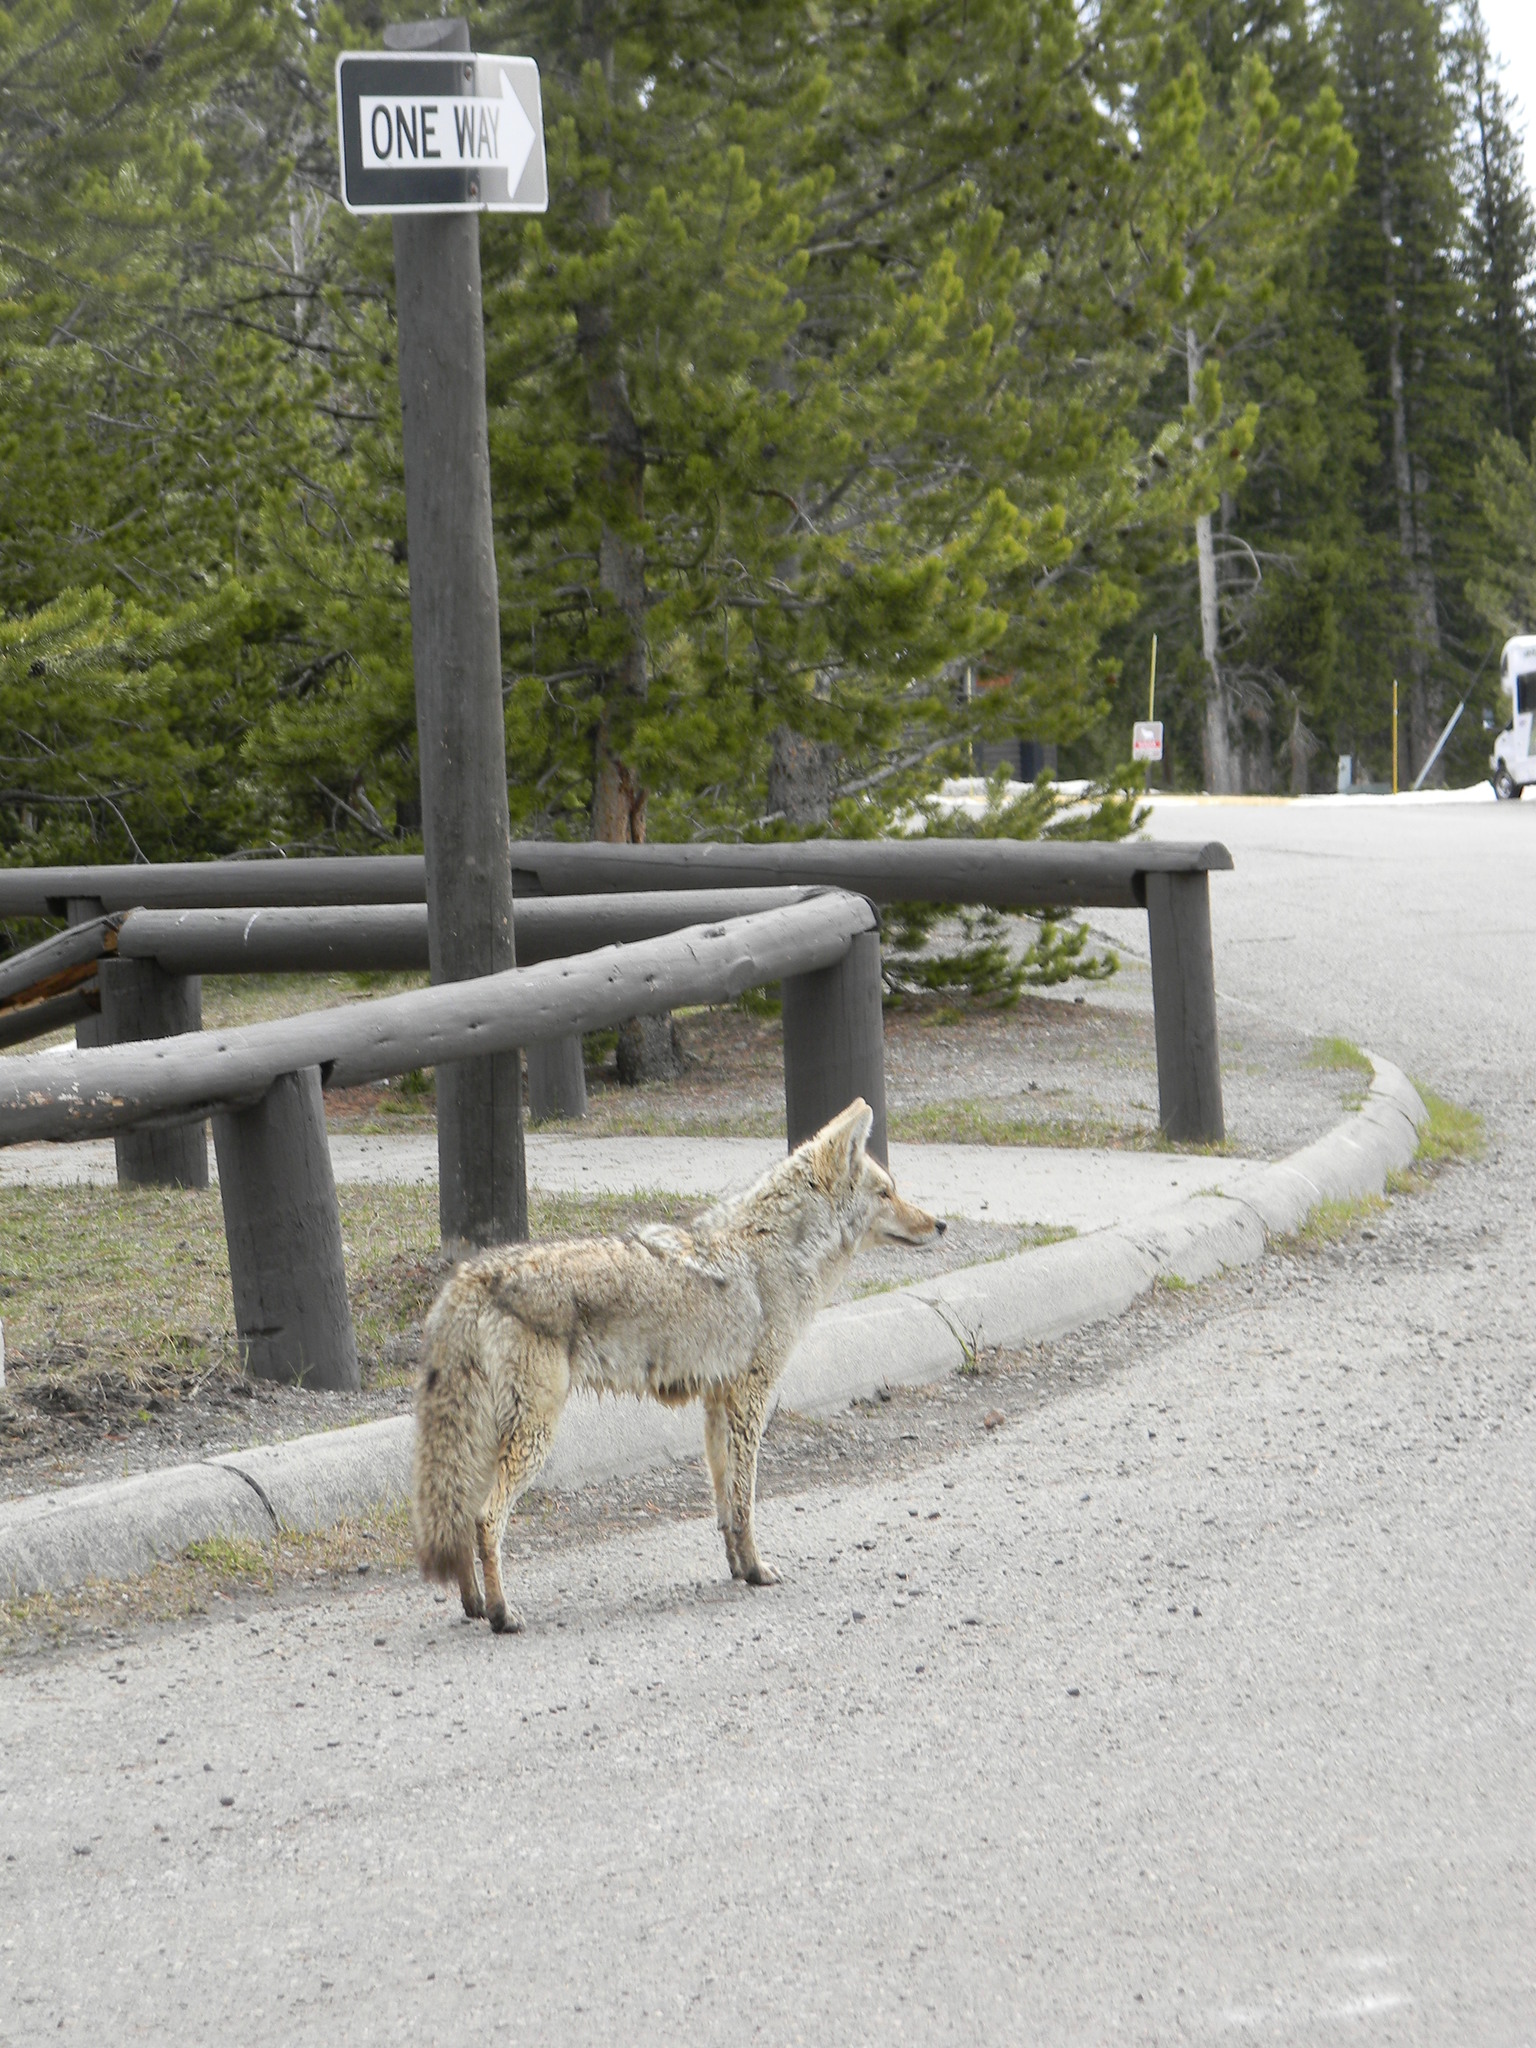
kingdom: Animalia
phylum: Chordata
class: Mammalia
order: Carnivora
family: Canidae
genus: Canis
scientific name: Canis latrans
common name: Coyote
